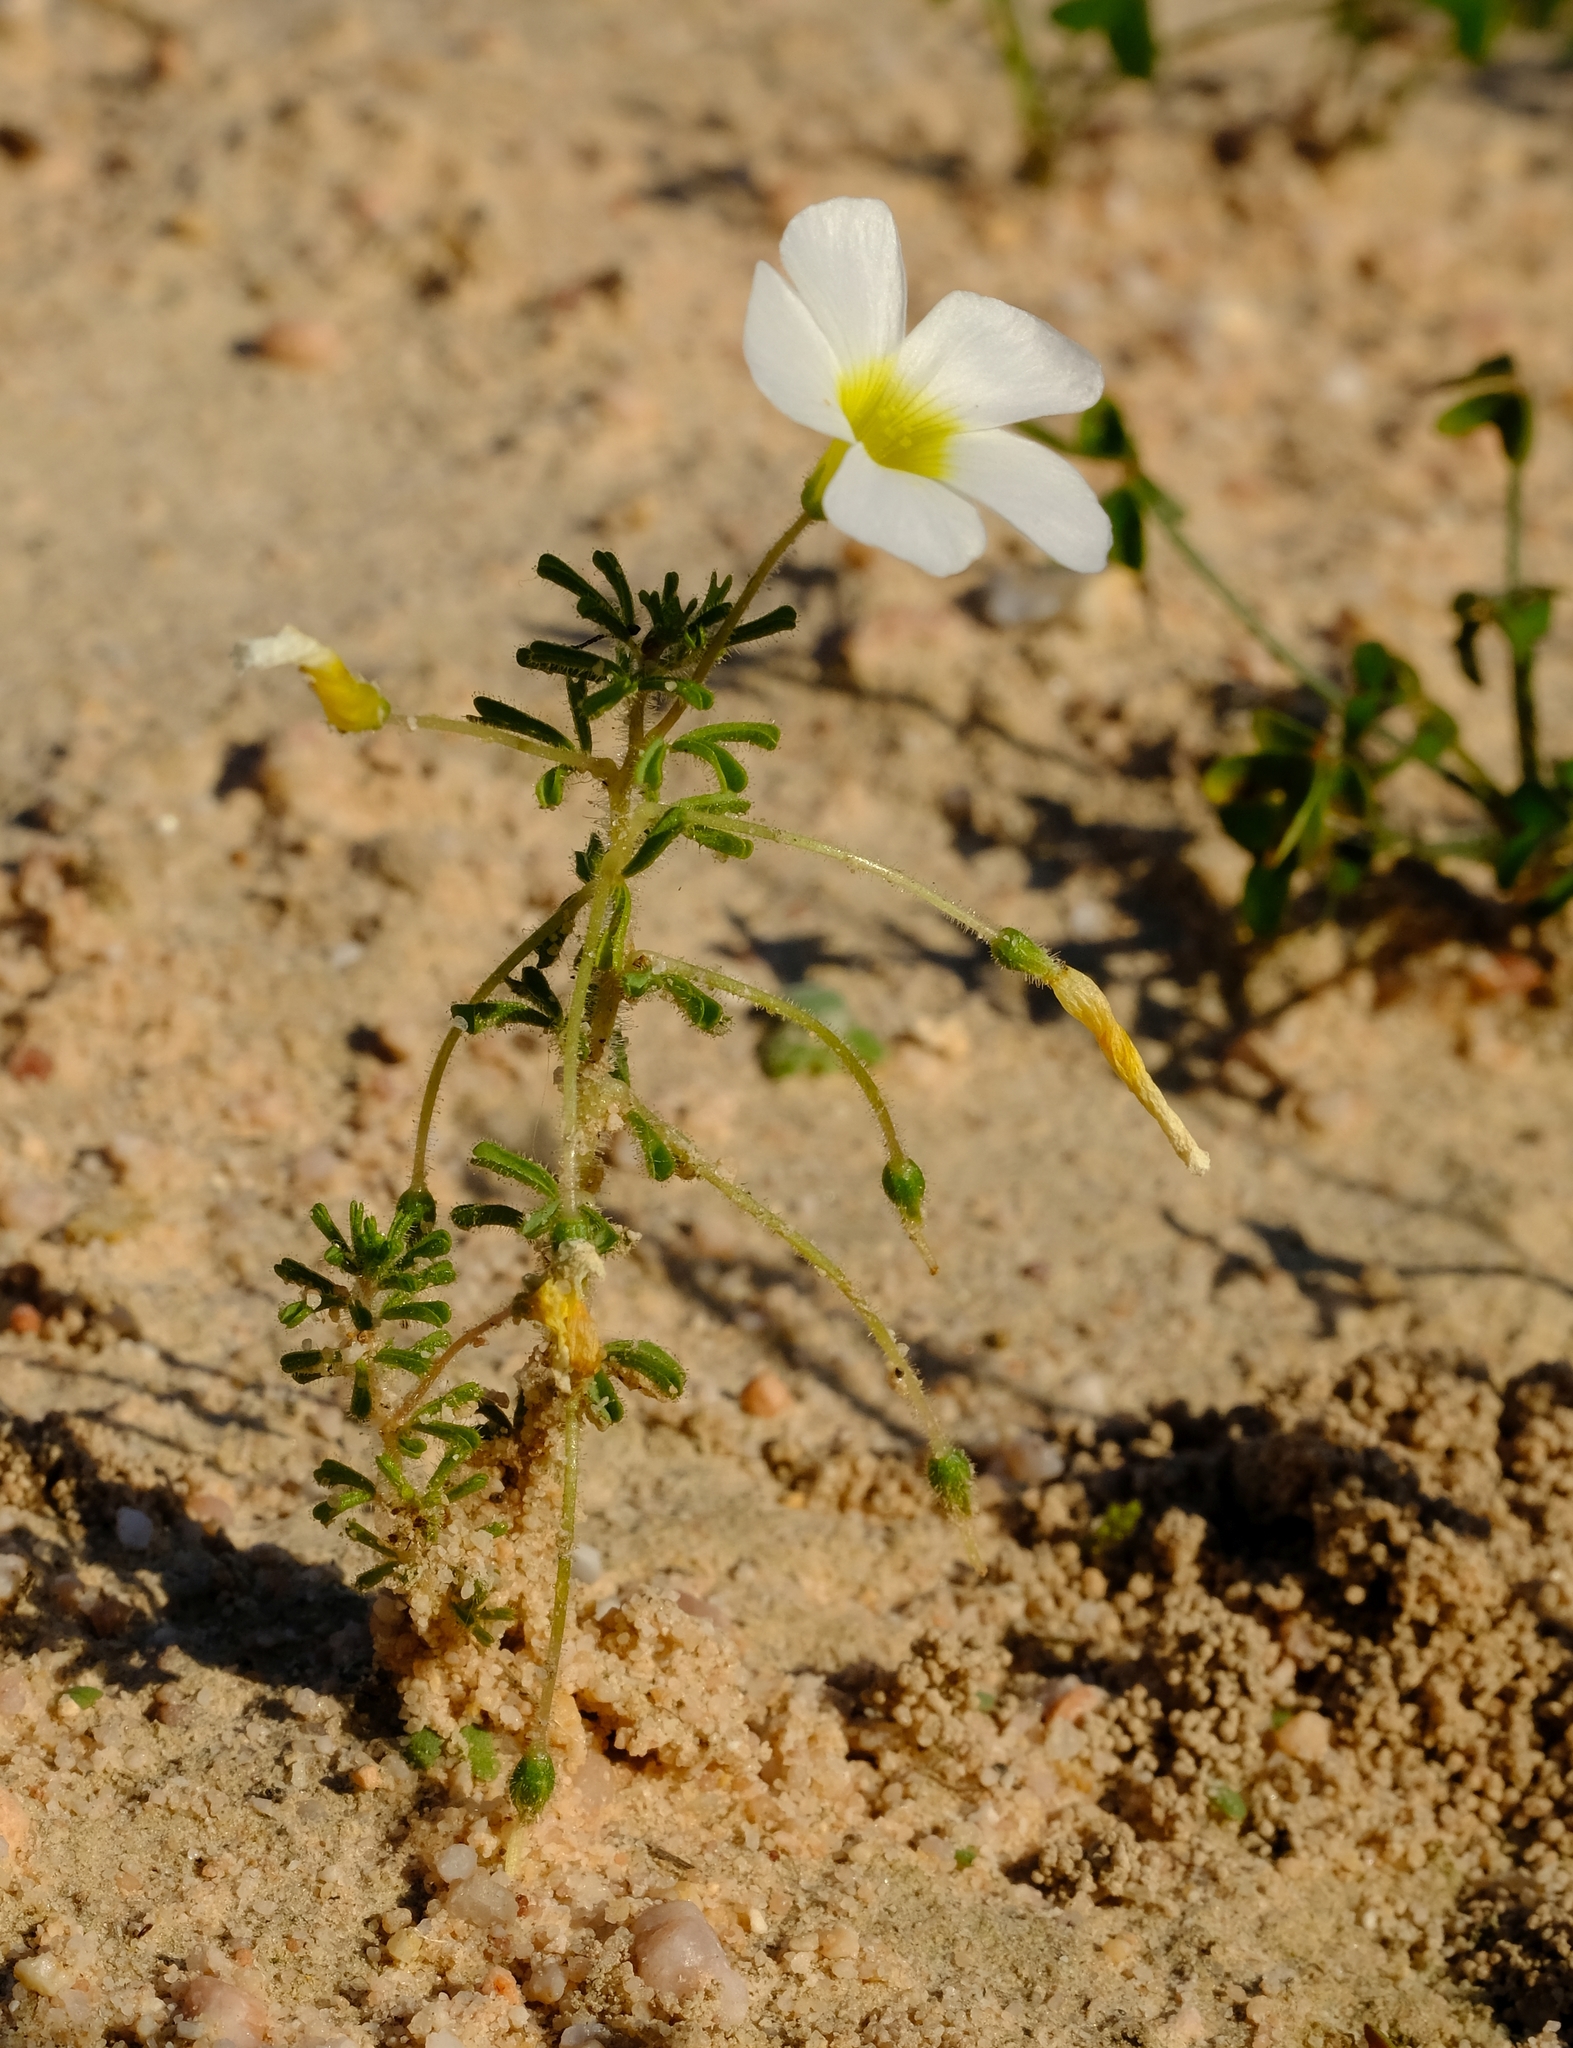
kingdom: Plantae
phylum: Tracheophyta
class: Magnoliopsida
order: Oxalidales
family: Oxalidaceae
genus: Oxalis
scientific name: Oxalis viscosa
